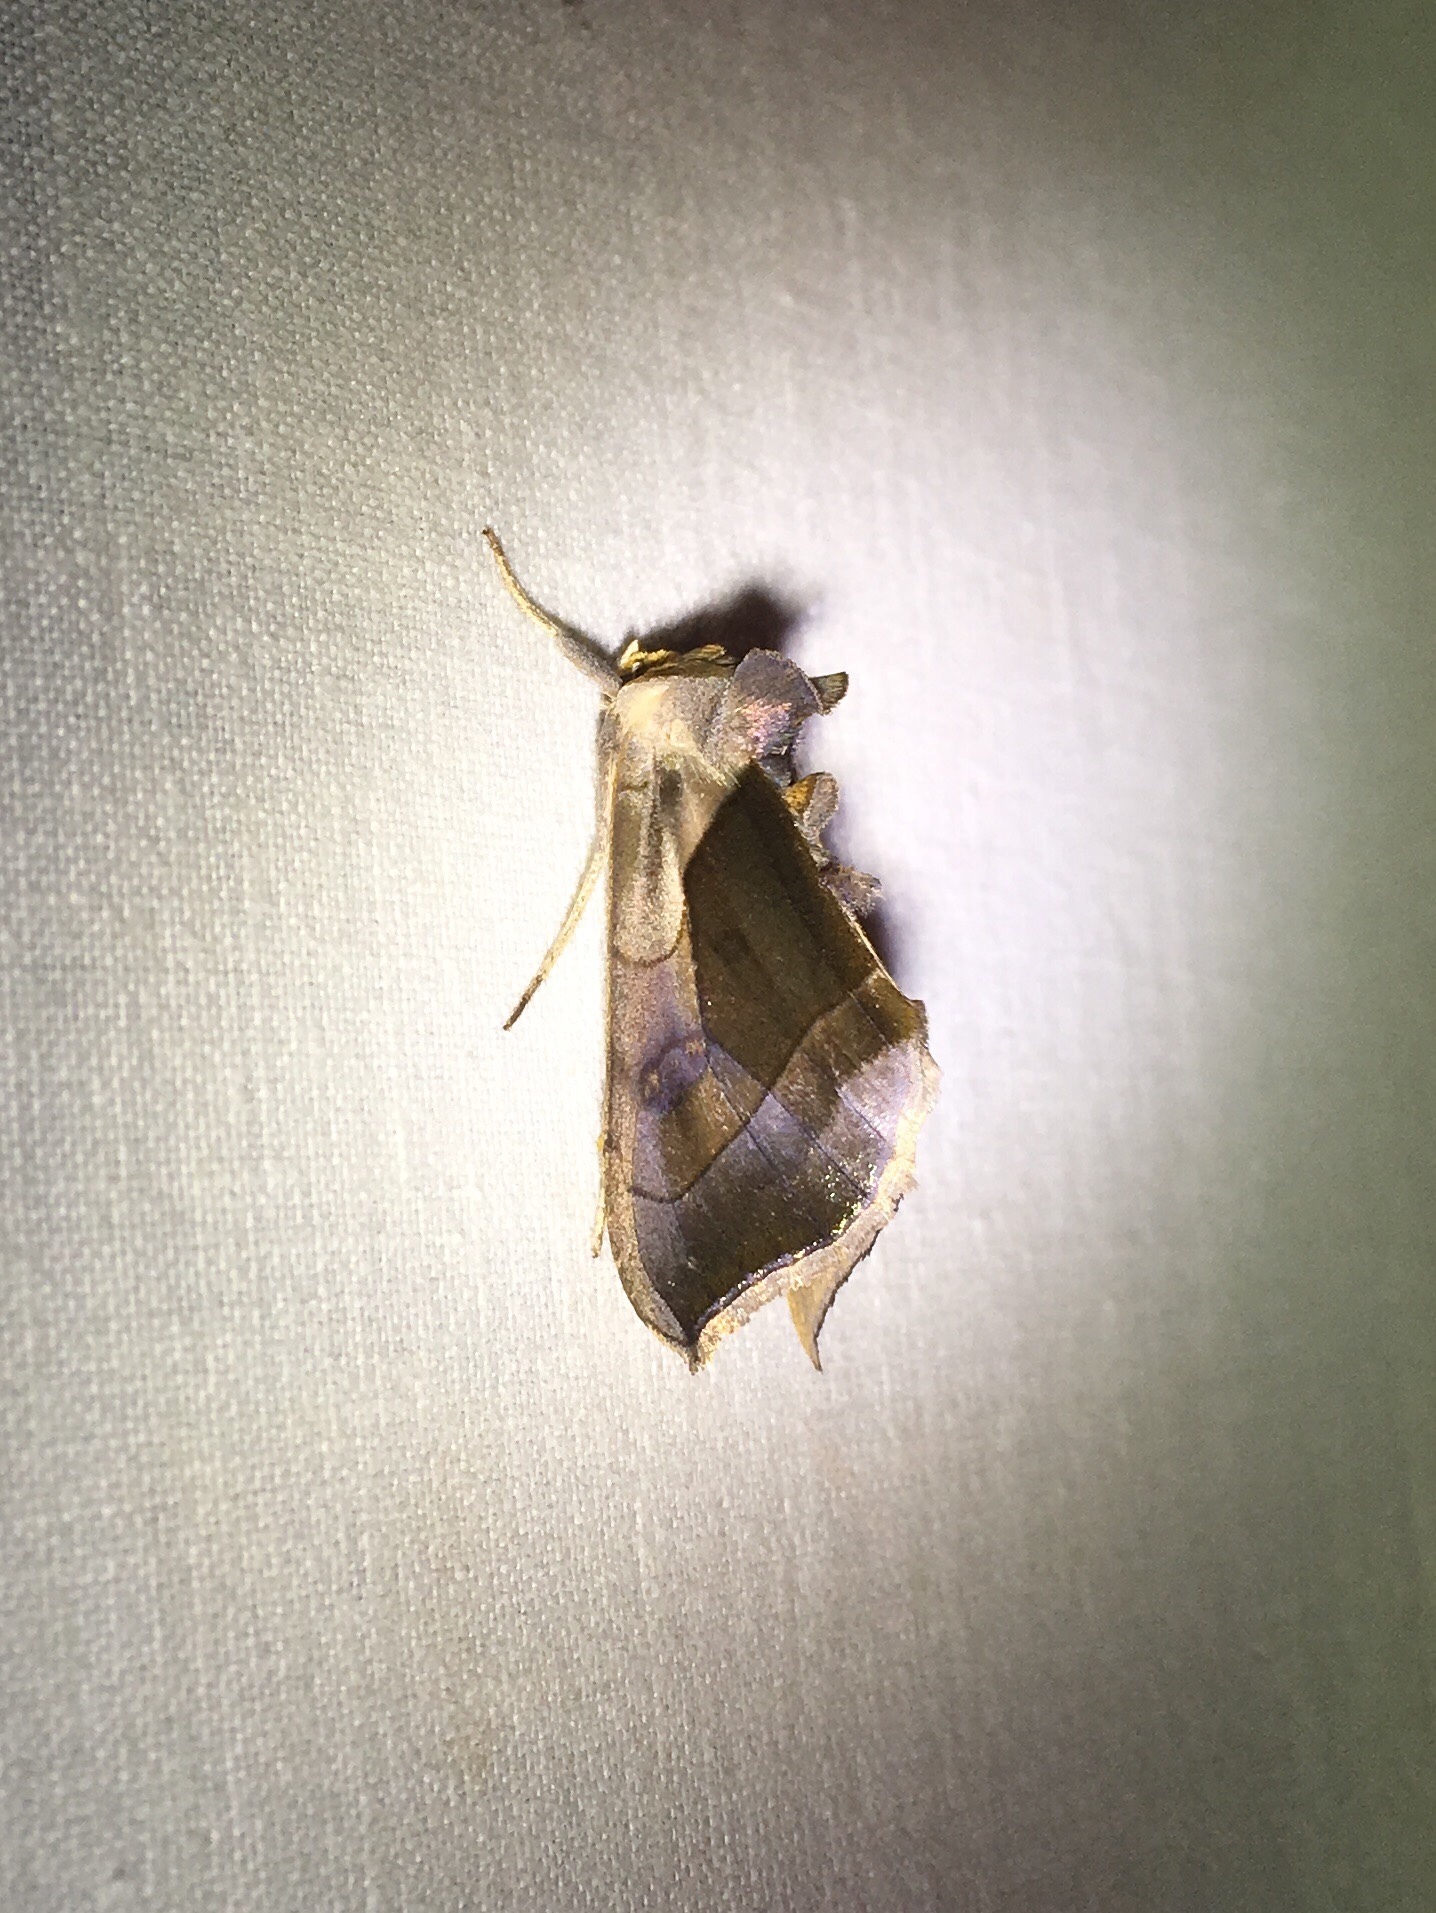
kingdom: Animalia
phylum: Arthropoda
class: Insecta
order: Lepidoptera
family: Noctuidae
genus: Diachrysia
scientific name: Diachrysia balluca
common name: Green-patched looper moth
